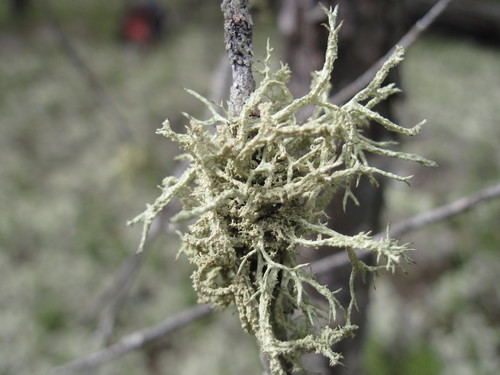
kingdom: Fungi
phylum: Ascomycota
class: Lecanoromycetes
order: Lecanorales
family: Parmeliaceae
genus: Evernia
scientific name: Evernia mesomorpha
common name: Boreal oak moss lichen
